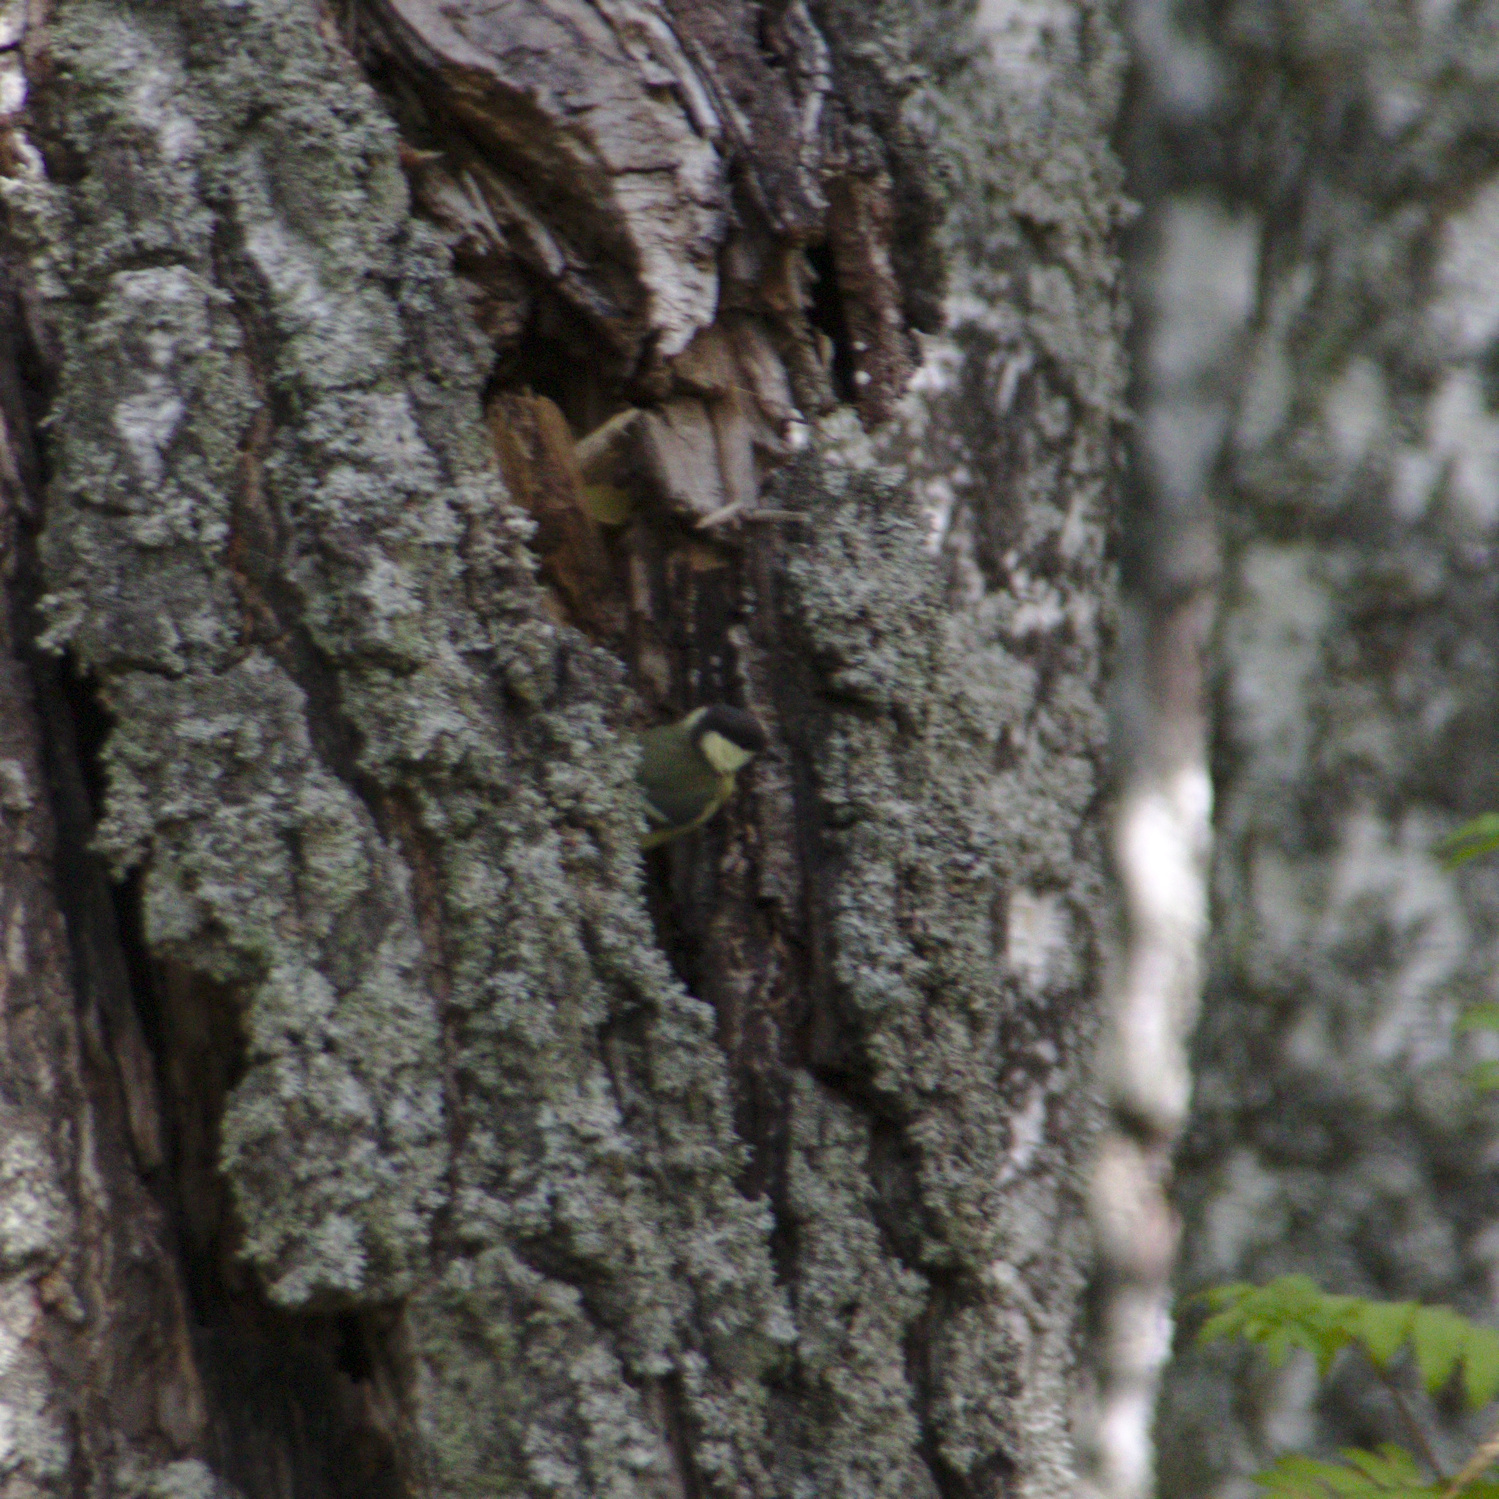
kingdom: Animalia
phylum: Chordata
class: Aves
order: Passeriformes
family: Paridae
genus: Parus
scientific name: Parus major
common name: Great tit
